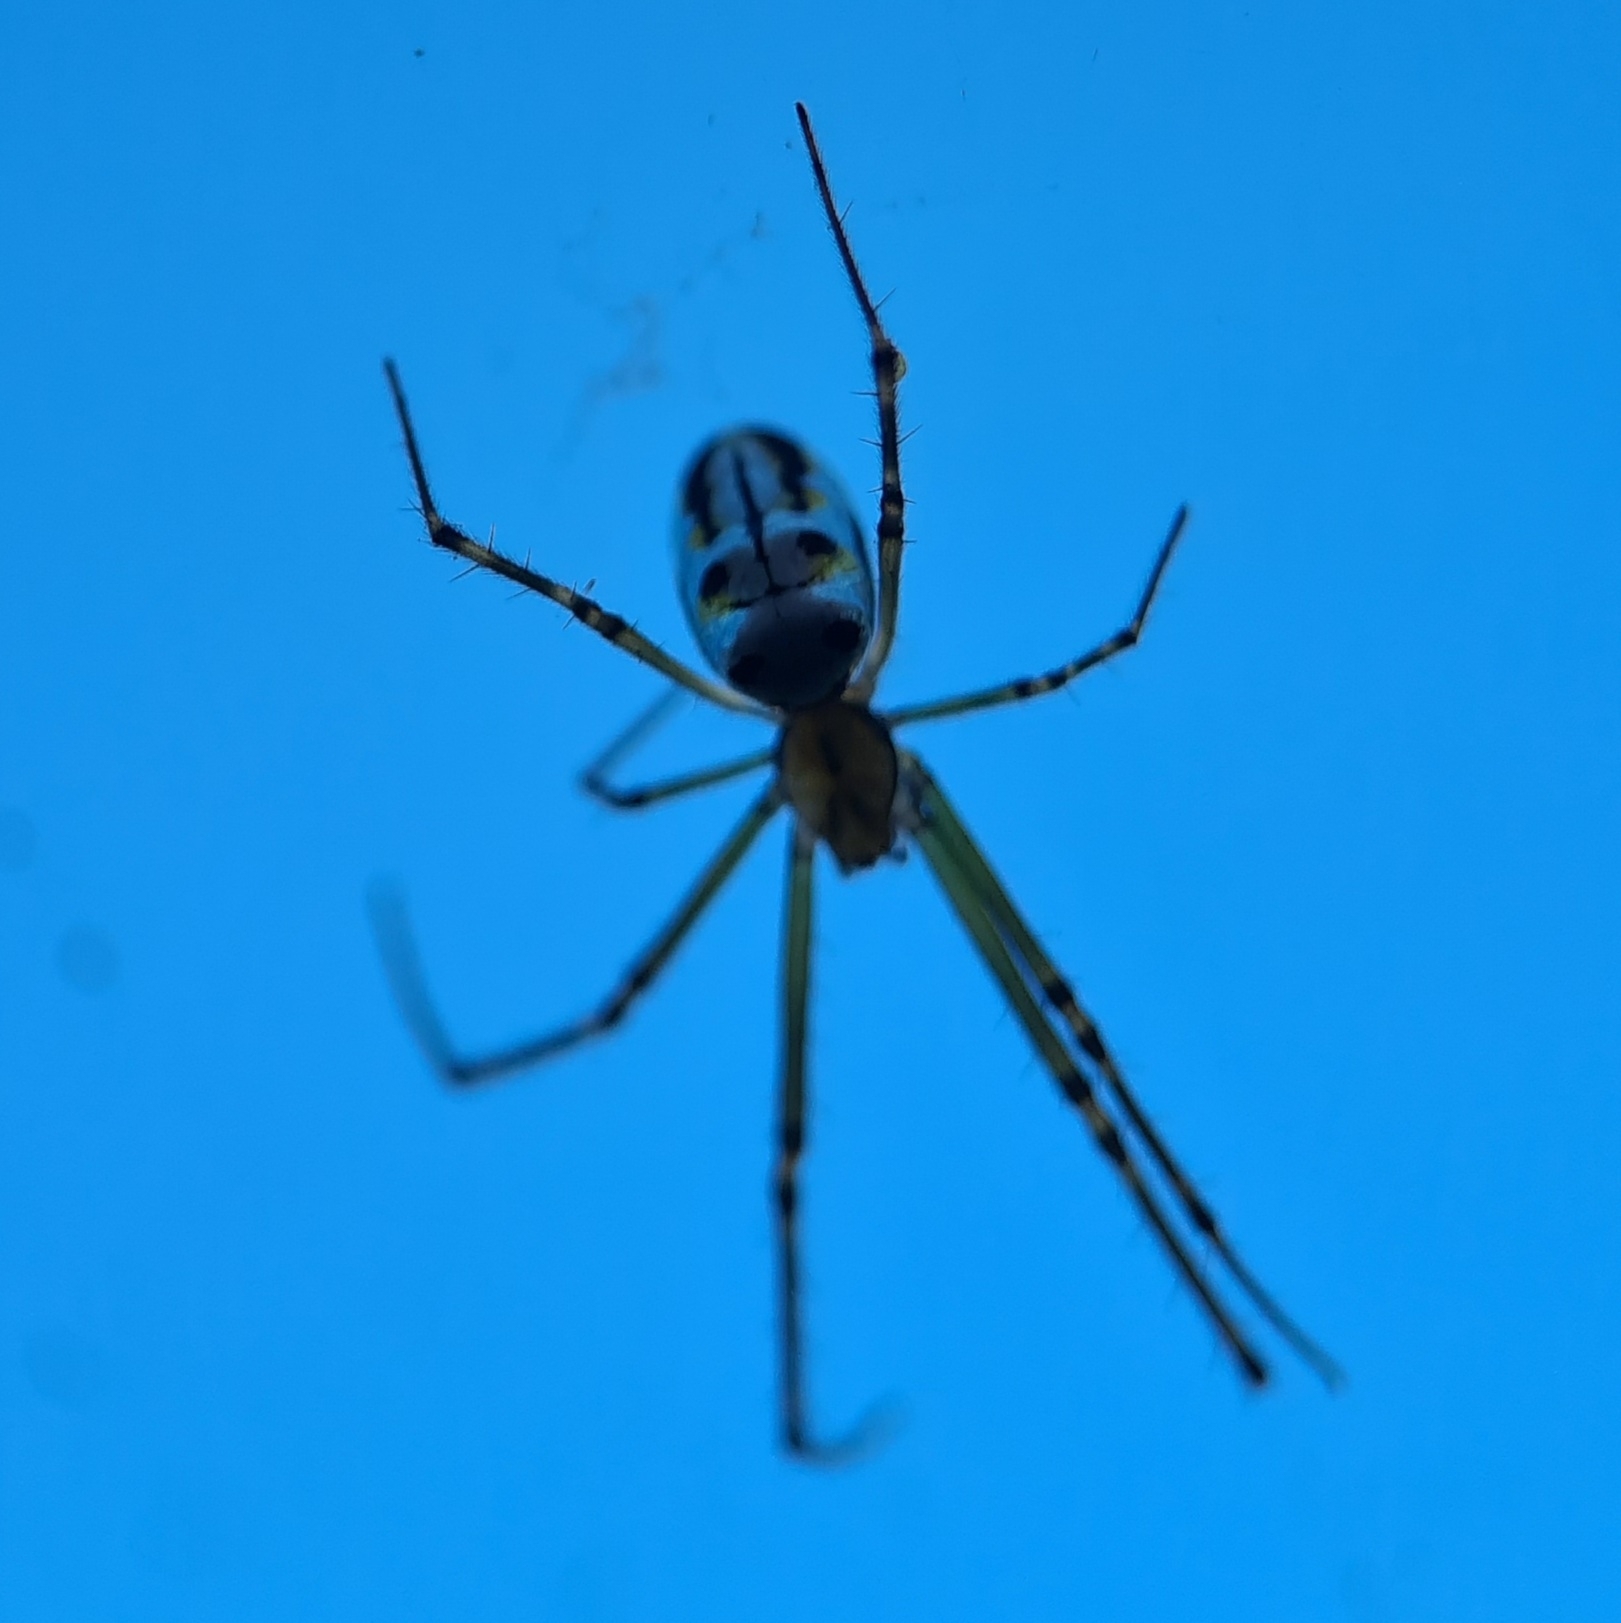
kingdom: Animalia
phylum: Arthropoda
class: Arachnida
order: Araneae
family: Tetragnathidae
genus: Leucauge
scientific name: Leucauge dromedaria
